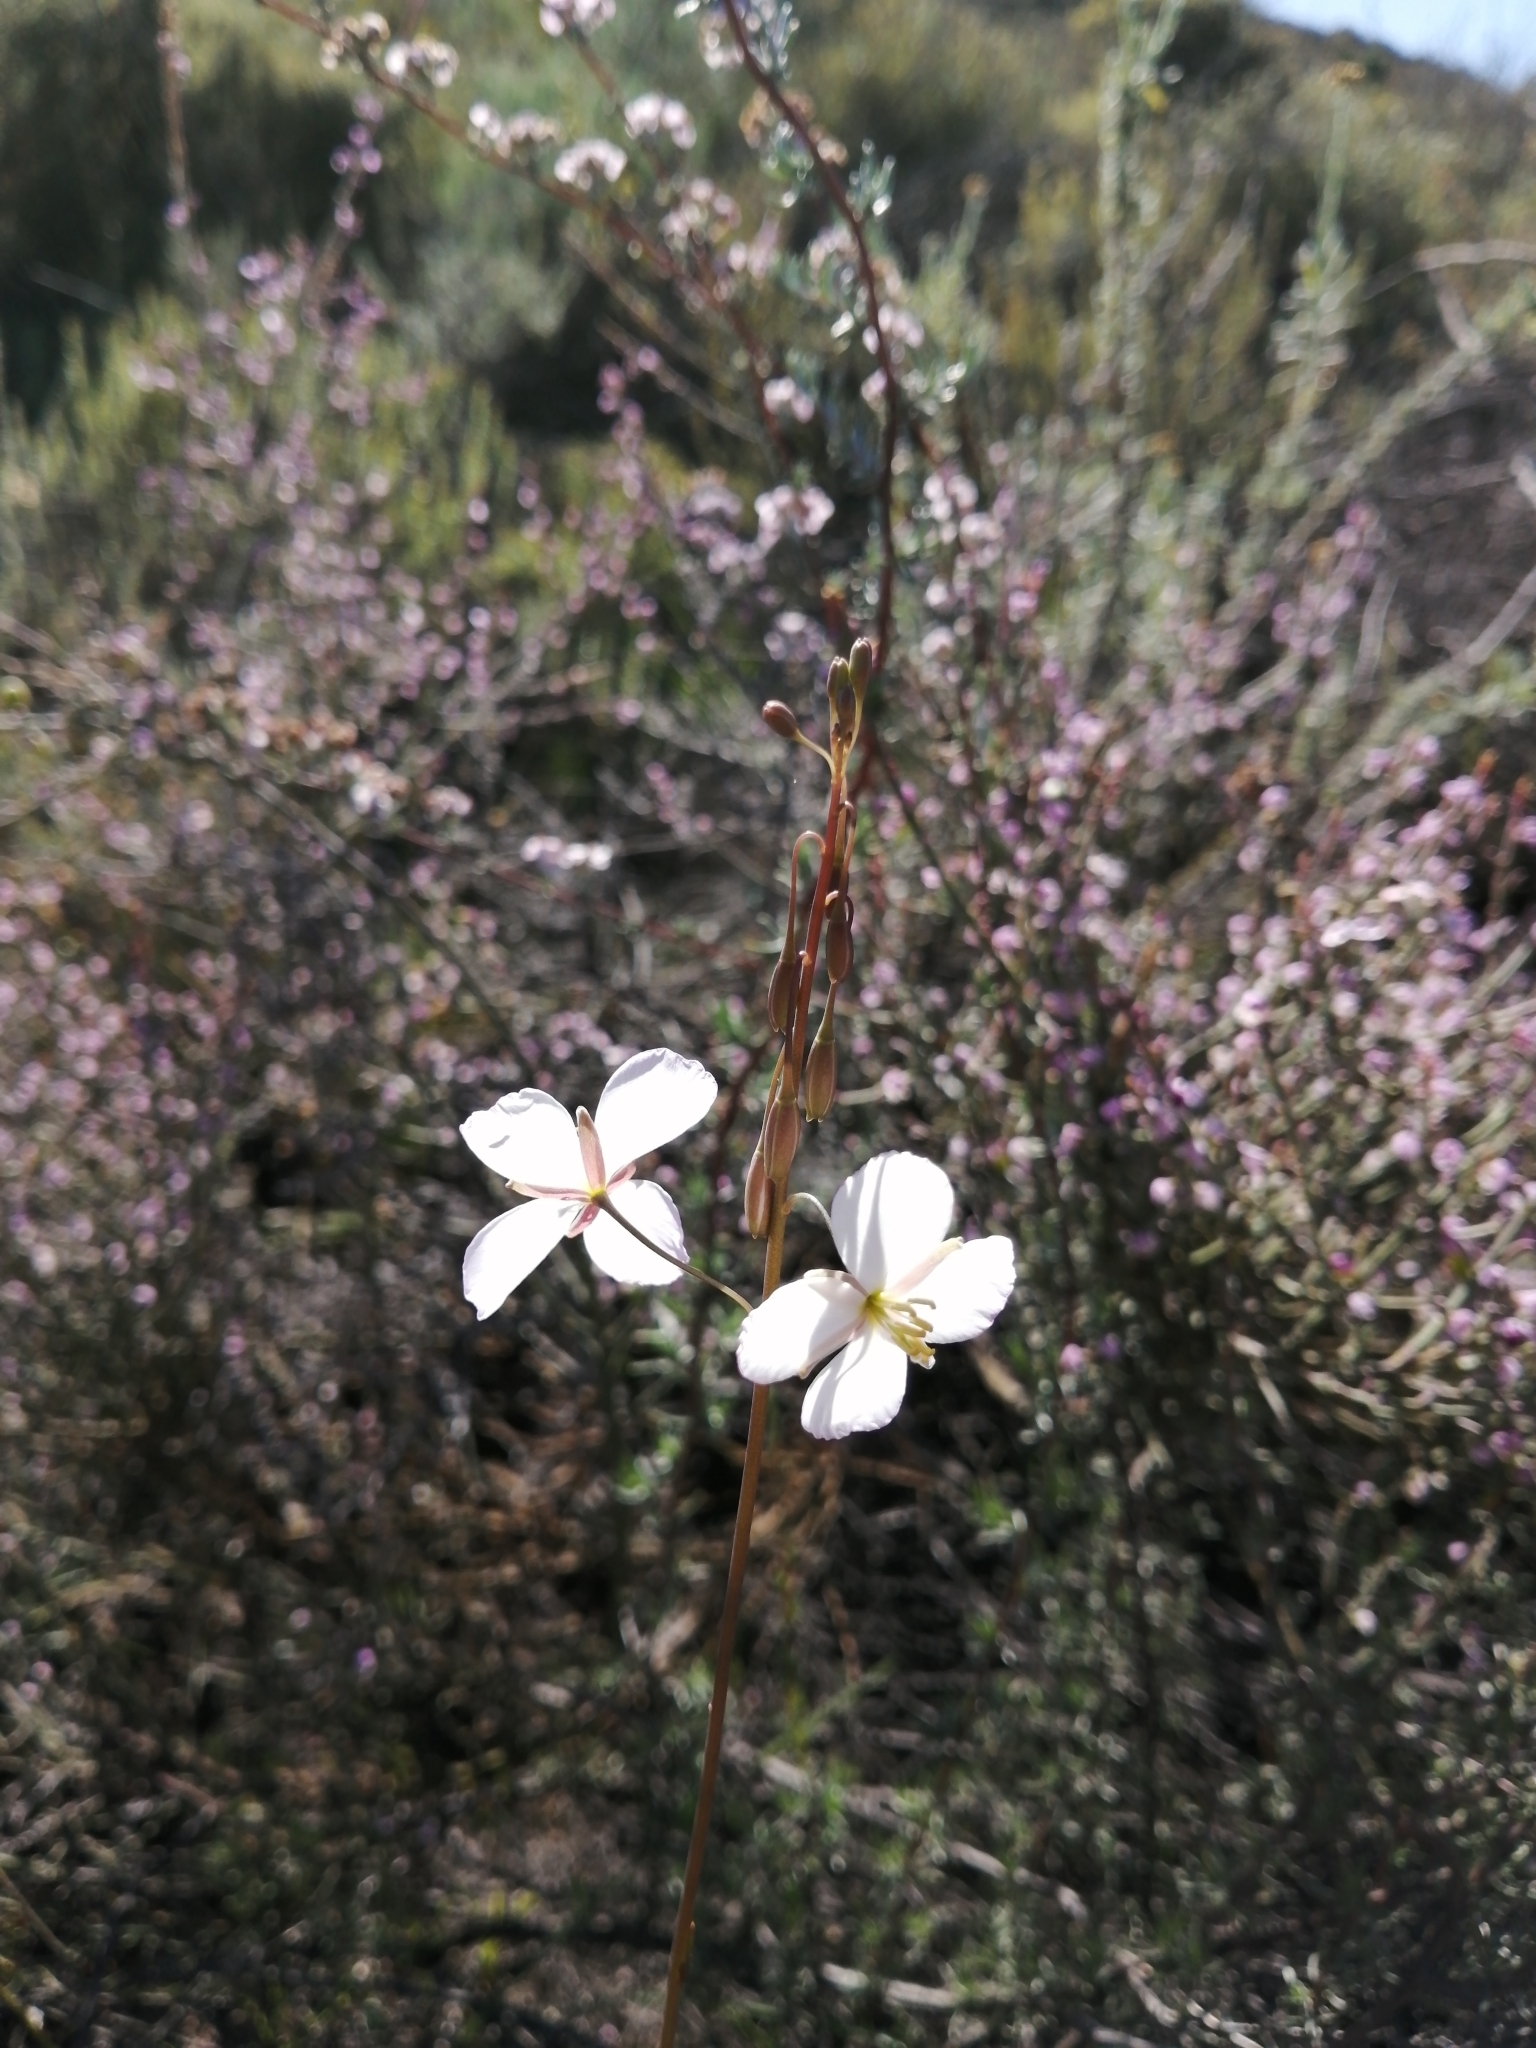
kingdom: Plantae
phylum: Tracheophyta
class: Magnoliopsida
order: Brassicales
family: Brassicaceae
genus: Heliophila
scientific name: Heliophila carnosa
